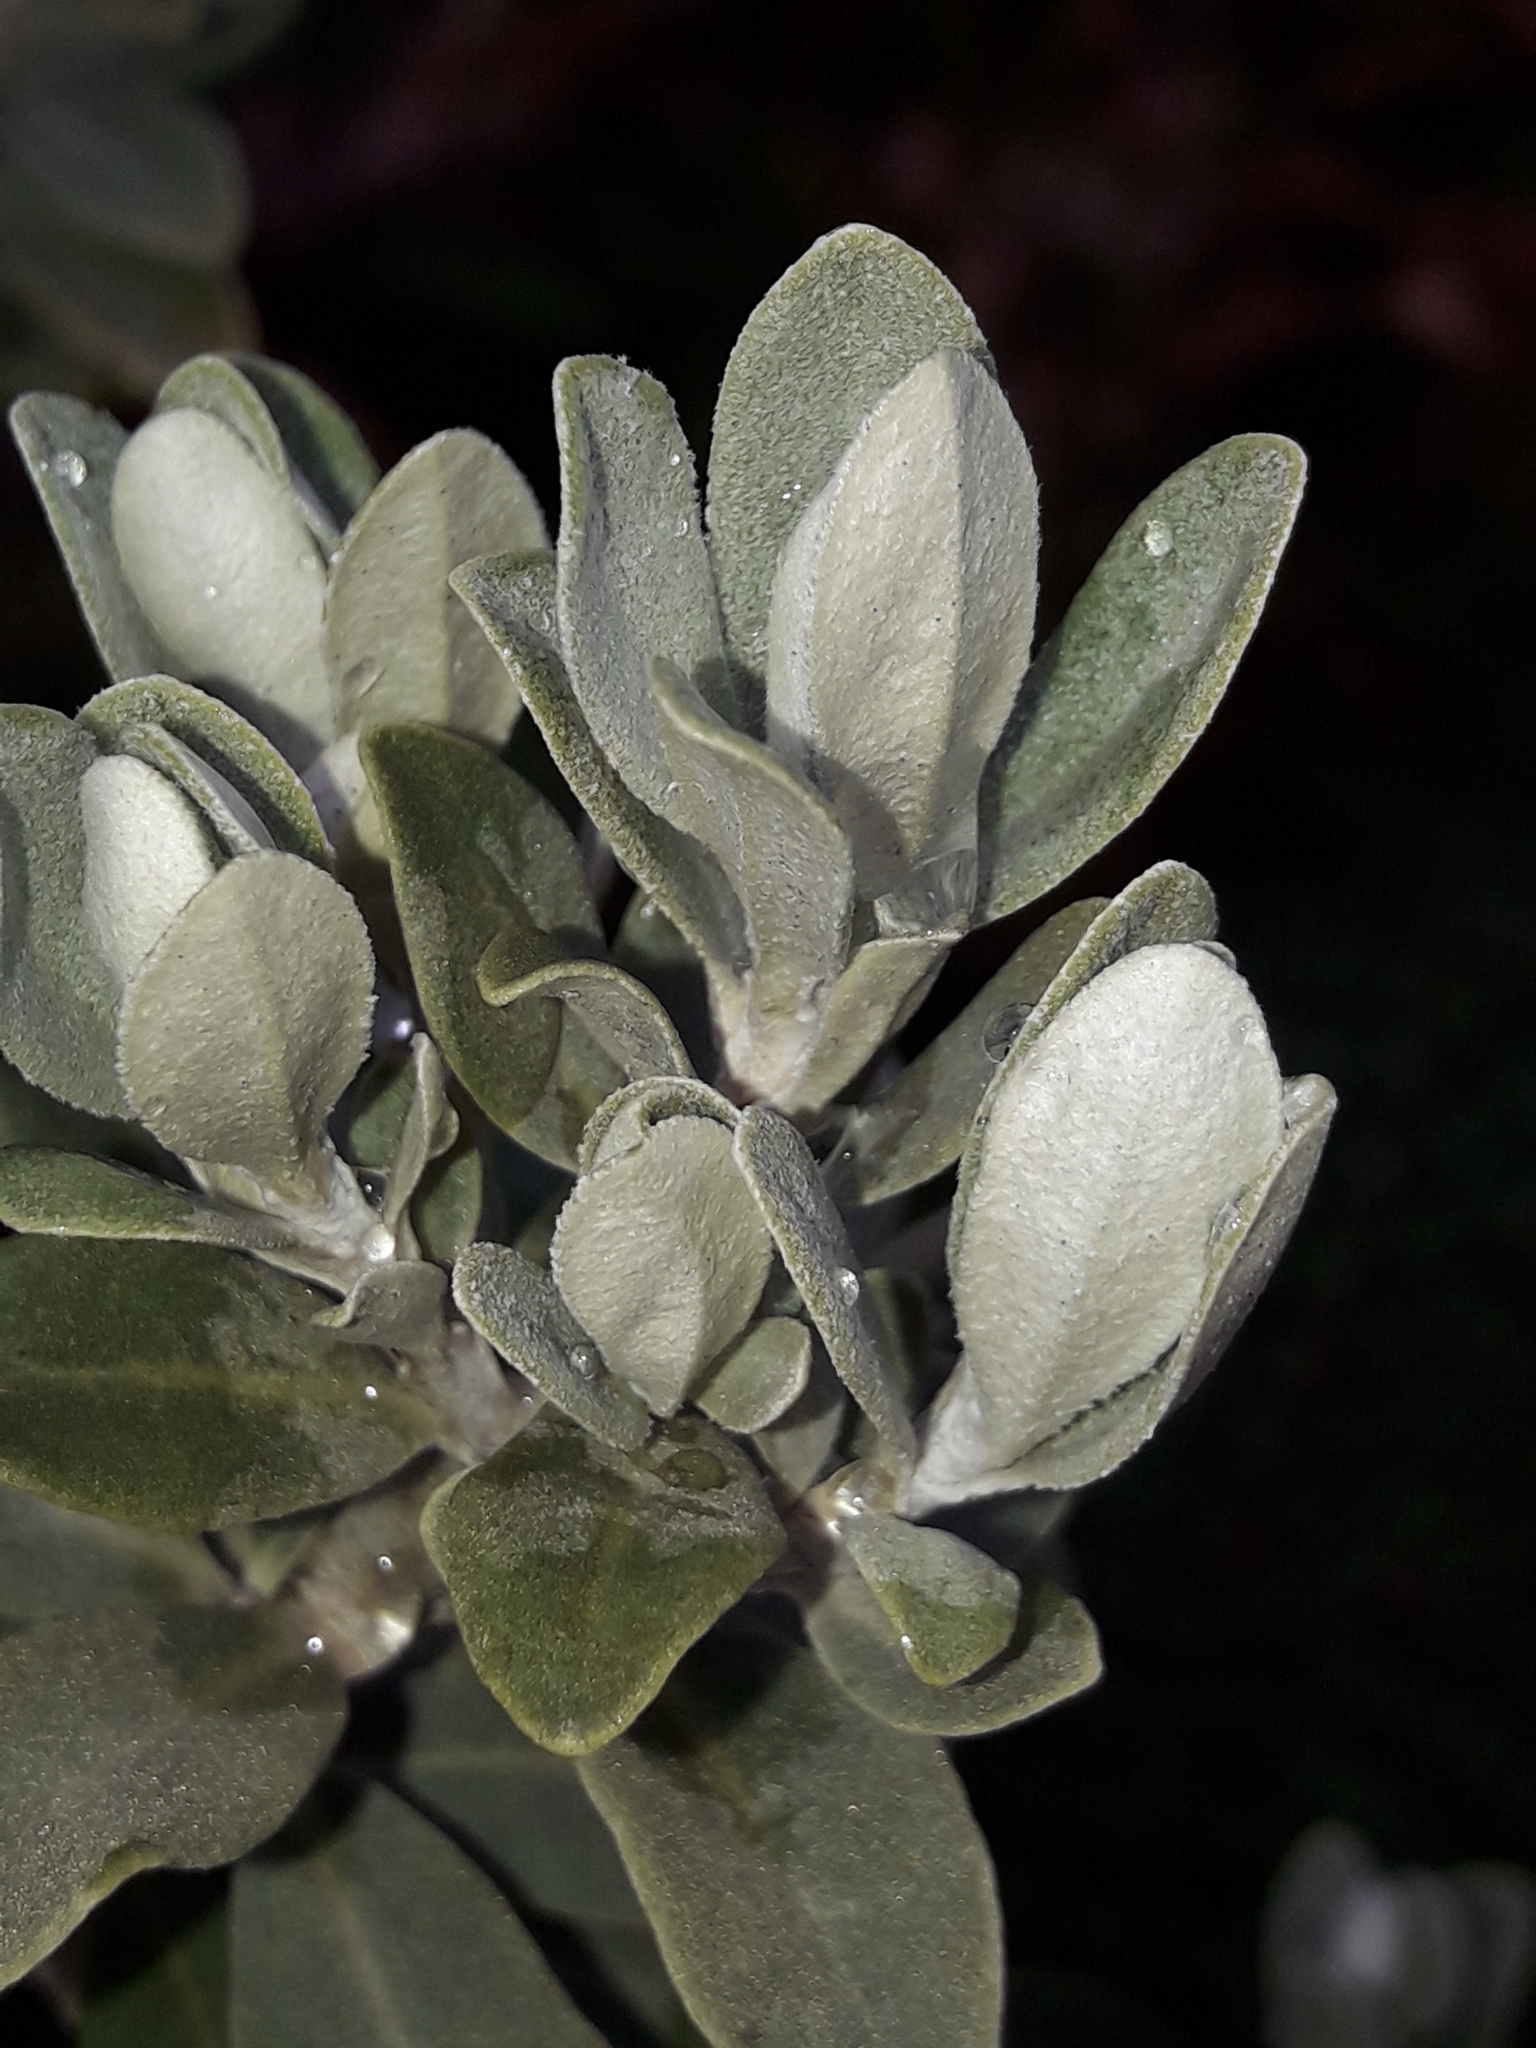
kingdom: Plantae
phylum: Tracheophyta
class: Magnoliopsida
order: Asterales
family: Asteraceae
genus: Olearia
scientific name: Olearia moschata
